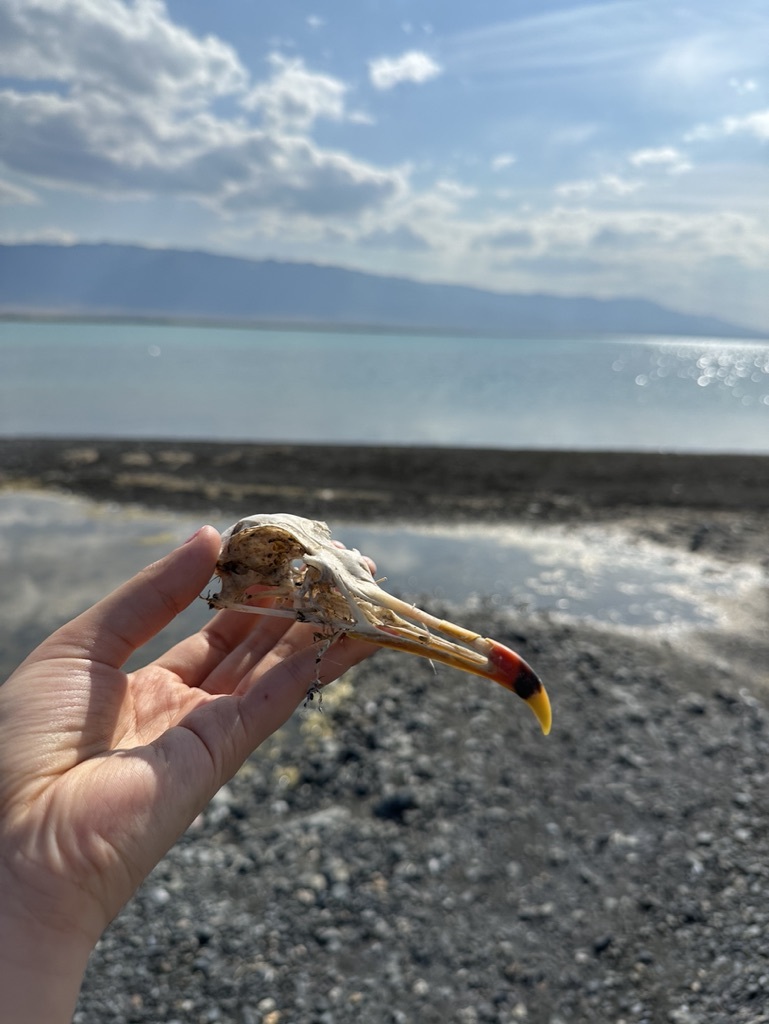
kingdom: Animalia
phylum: Chordata
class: Aves
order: Charadriiformes
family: Laridae
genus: Ichthyaetus
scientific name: Ichthyaetus ichthyaetus
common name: Pallas's gull
